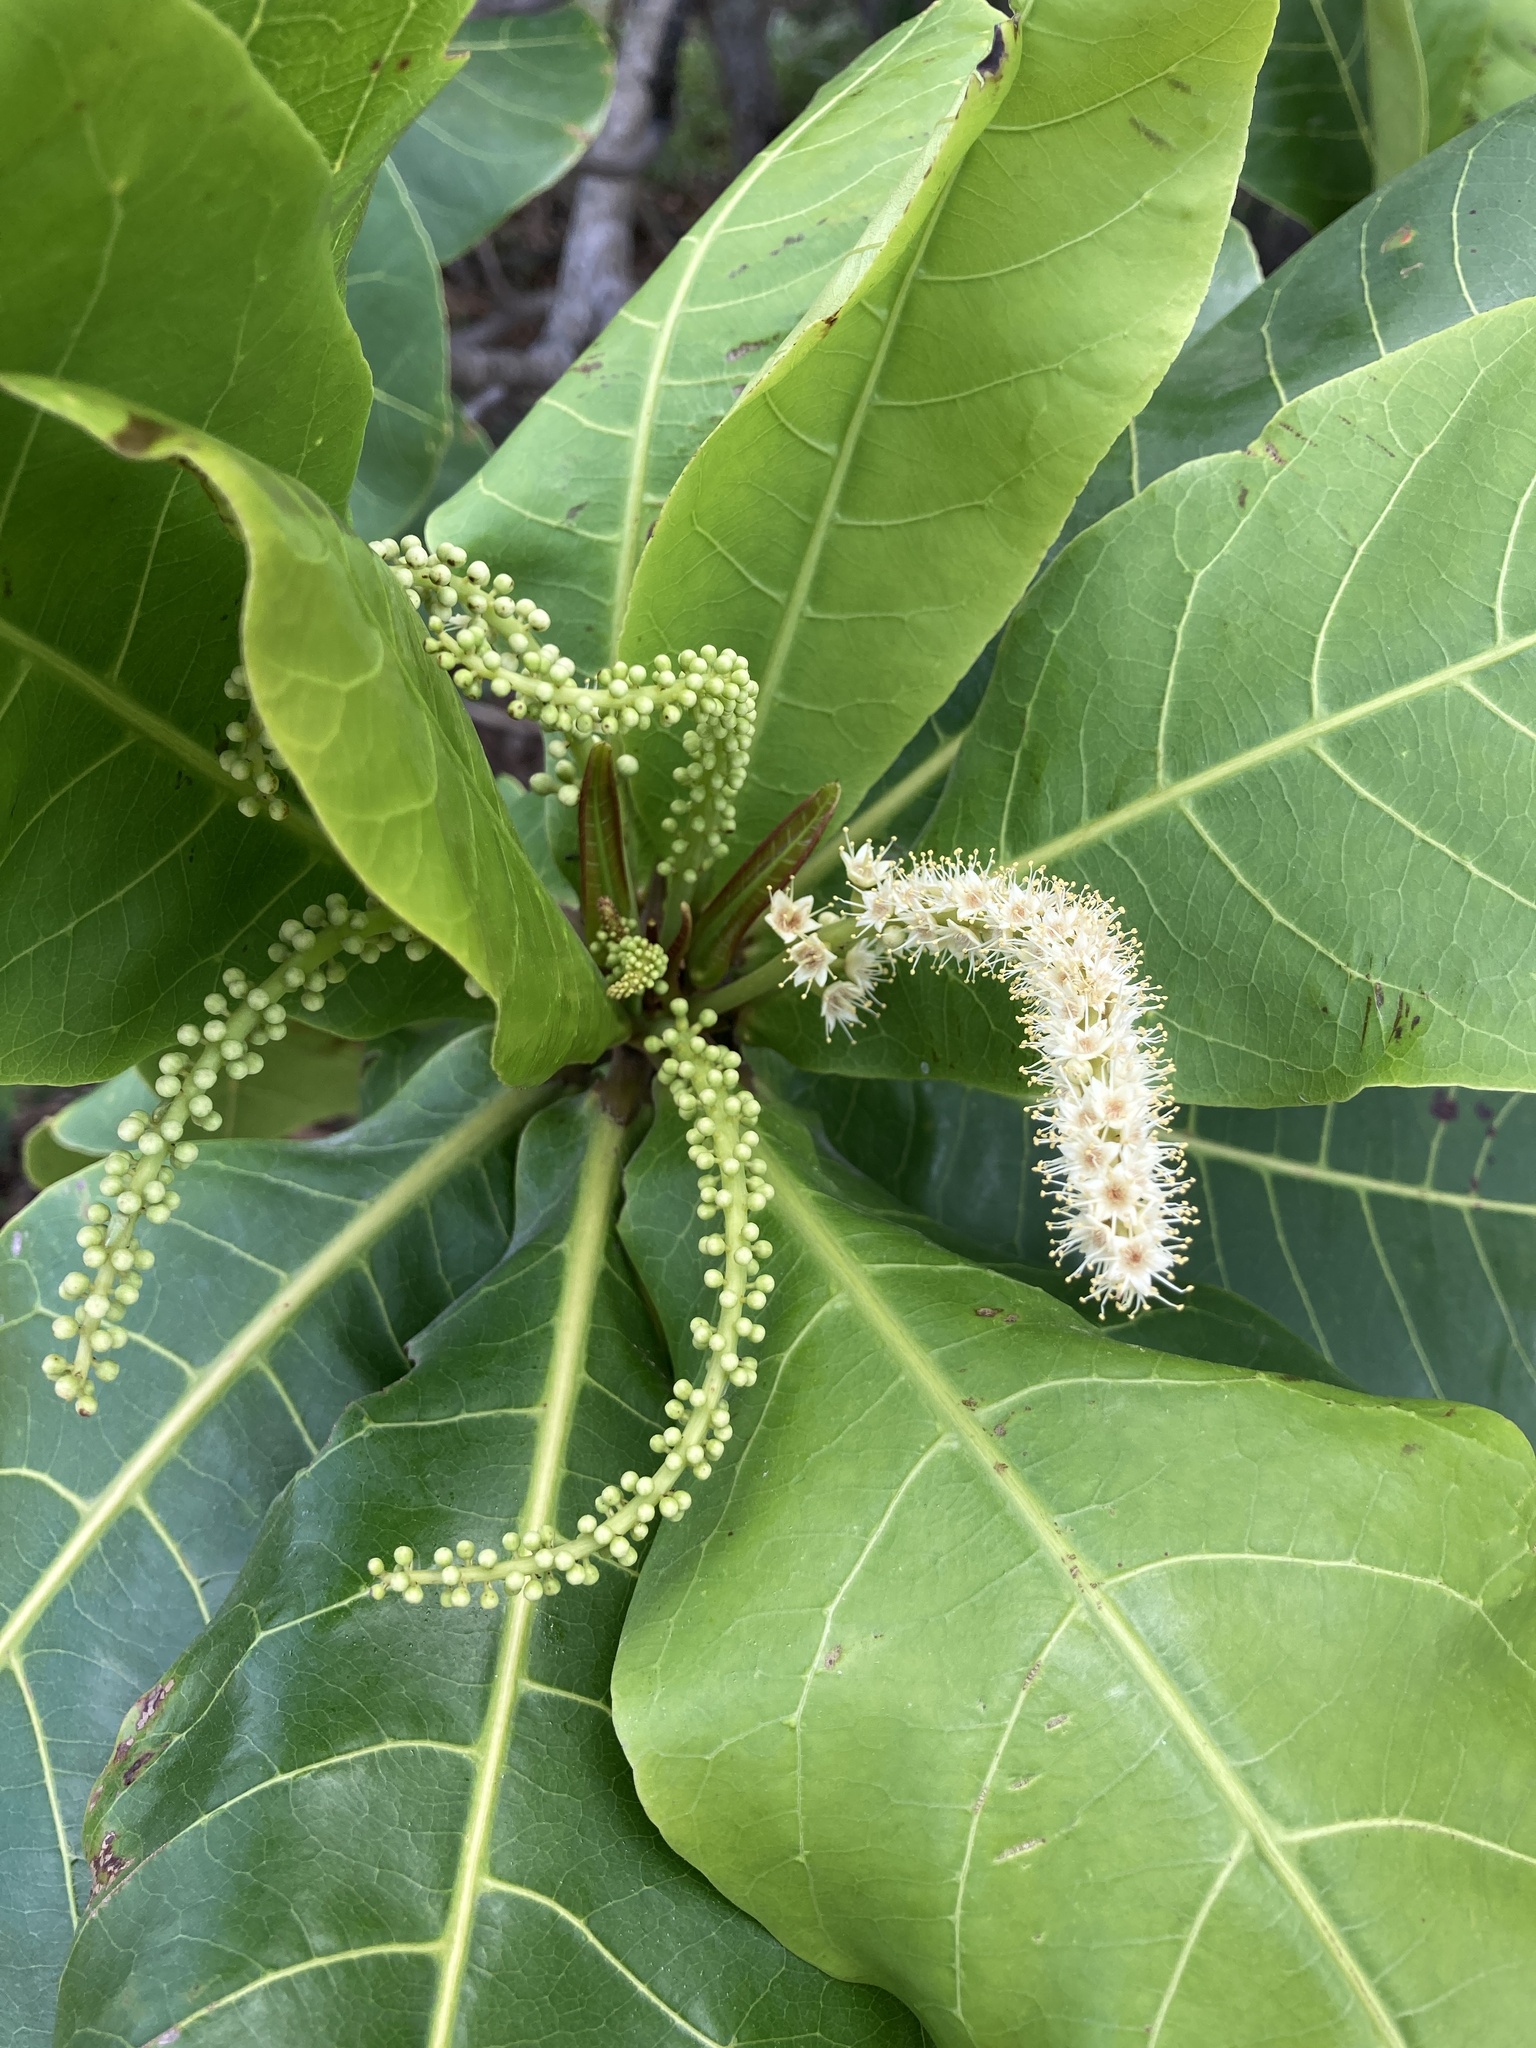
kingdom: Plantae
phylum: Tracheophyta
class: Magnoliopsida
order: Myrtales
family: Combretaceae
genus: Terminalia
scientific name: Terminalia catappa
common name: Tropical almond
